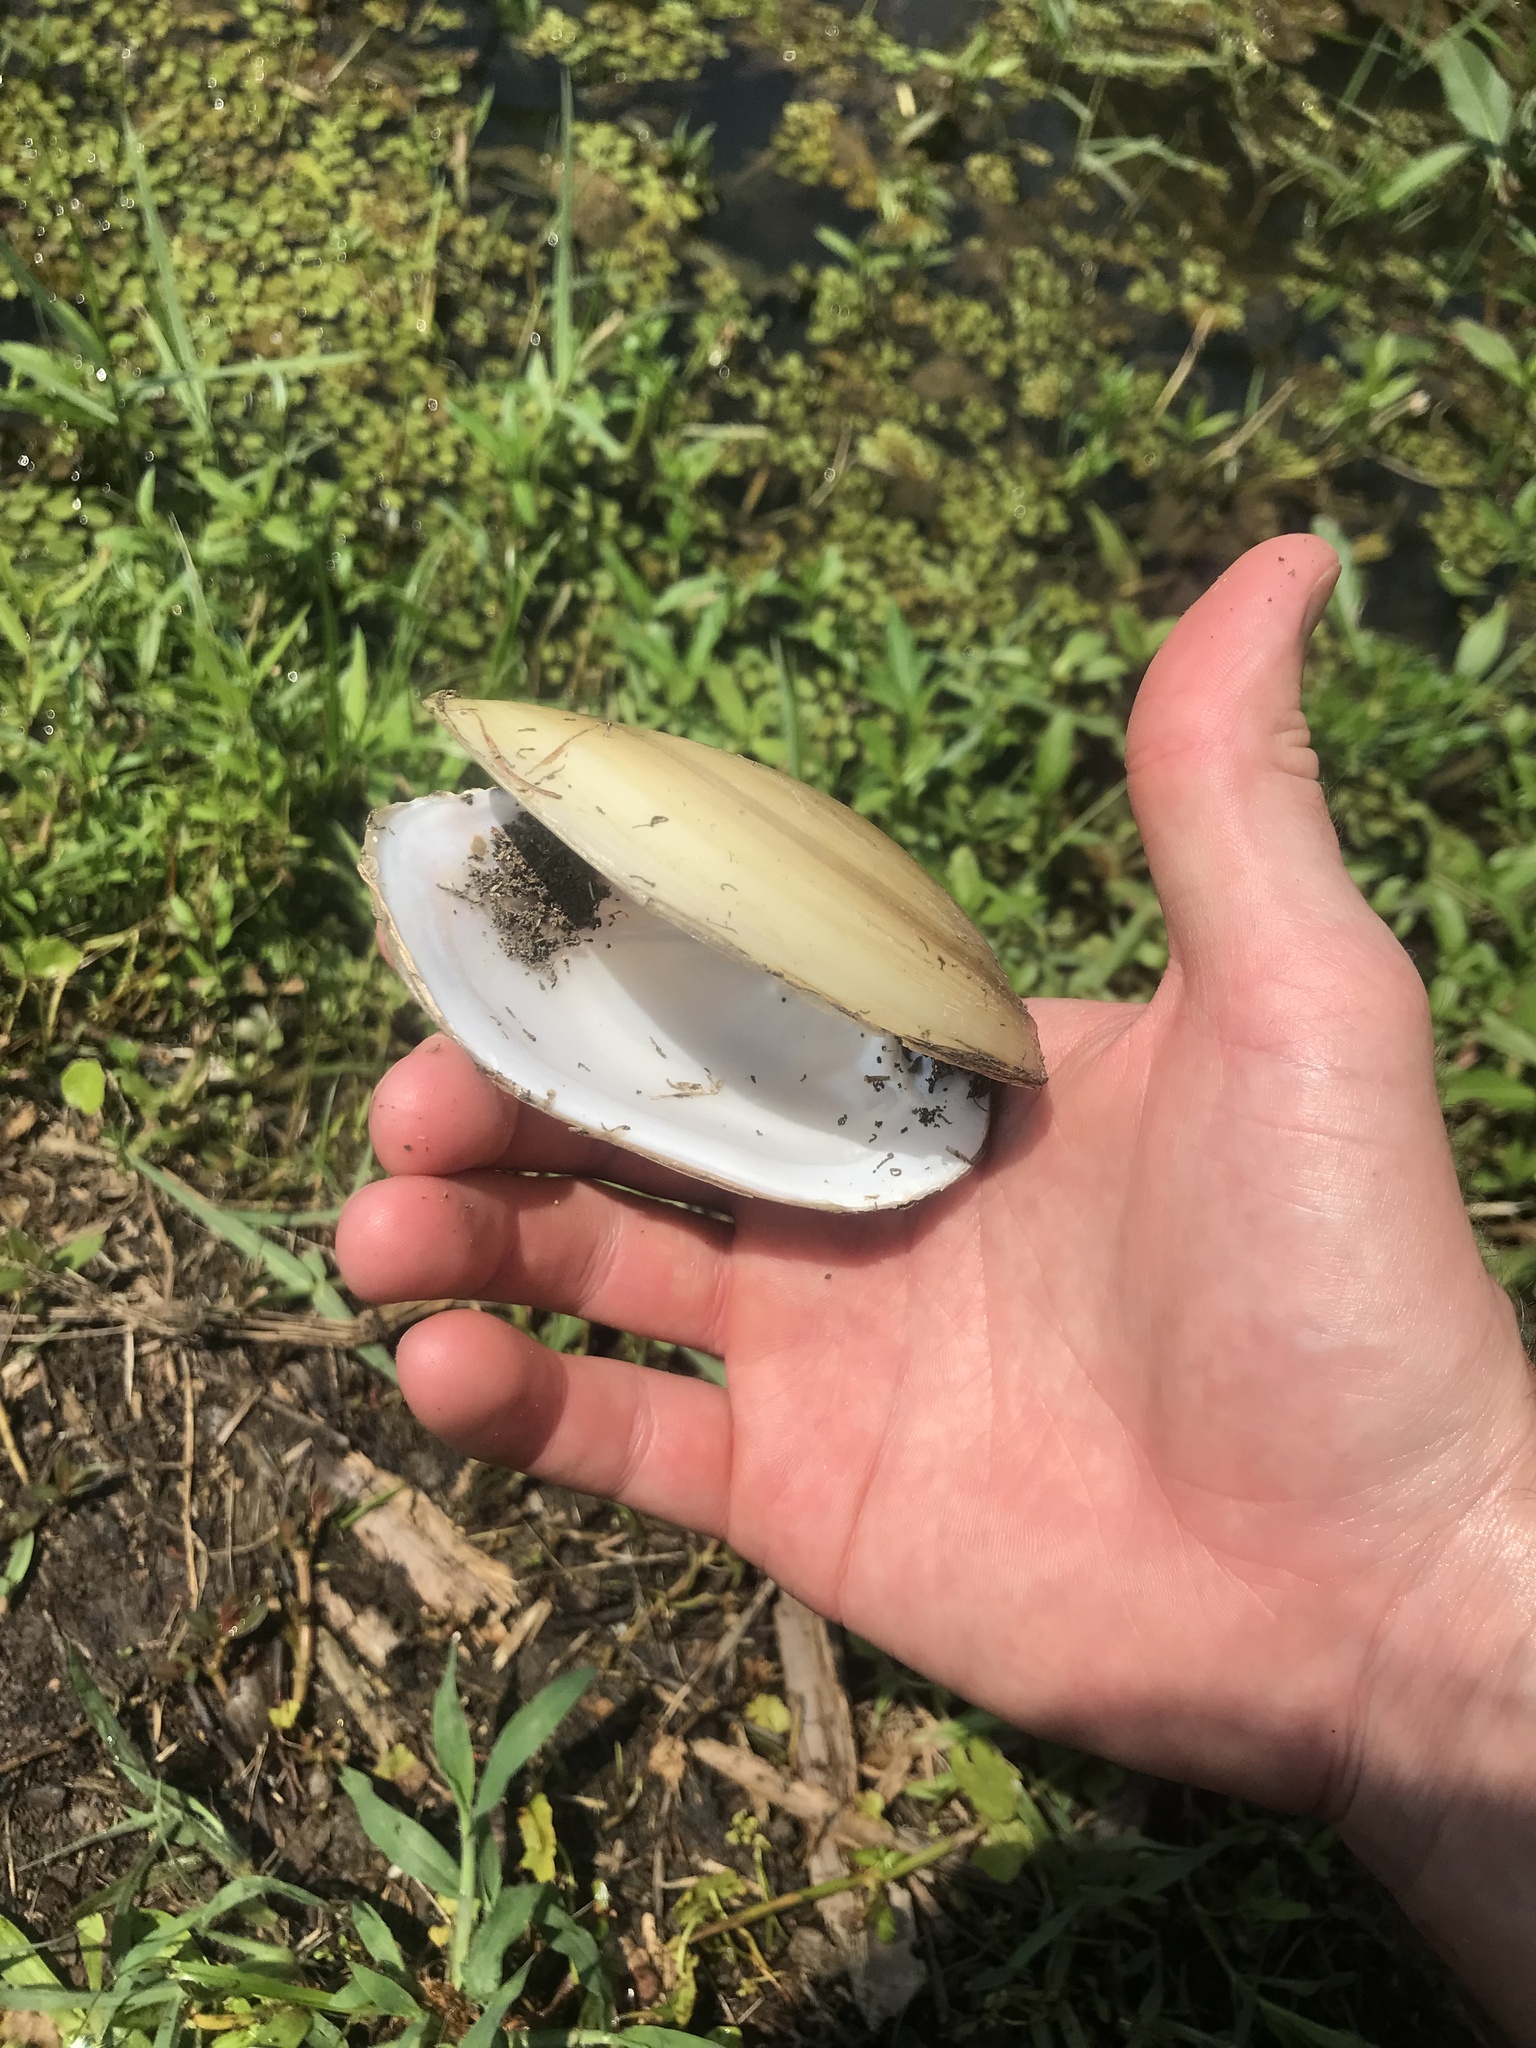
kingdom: Animalia
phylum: Mollusca
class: Bivalvia
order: Unionida
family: Unionidae
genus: Lampsilis
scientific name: Lampsilis teres
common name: Yellow sandshell
